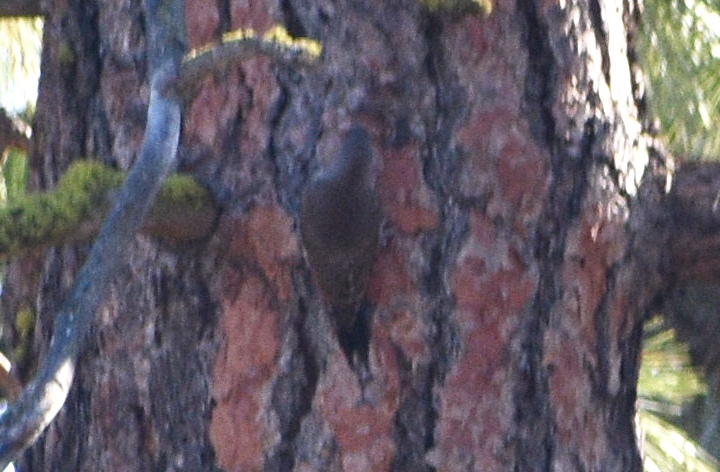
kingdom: Animalia
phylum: Chordata
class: Aves
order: Piciformes
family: Picidae
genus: Colaptes
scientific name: Colaptes auratus
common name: Northern flicker
